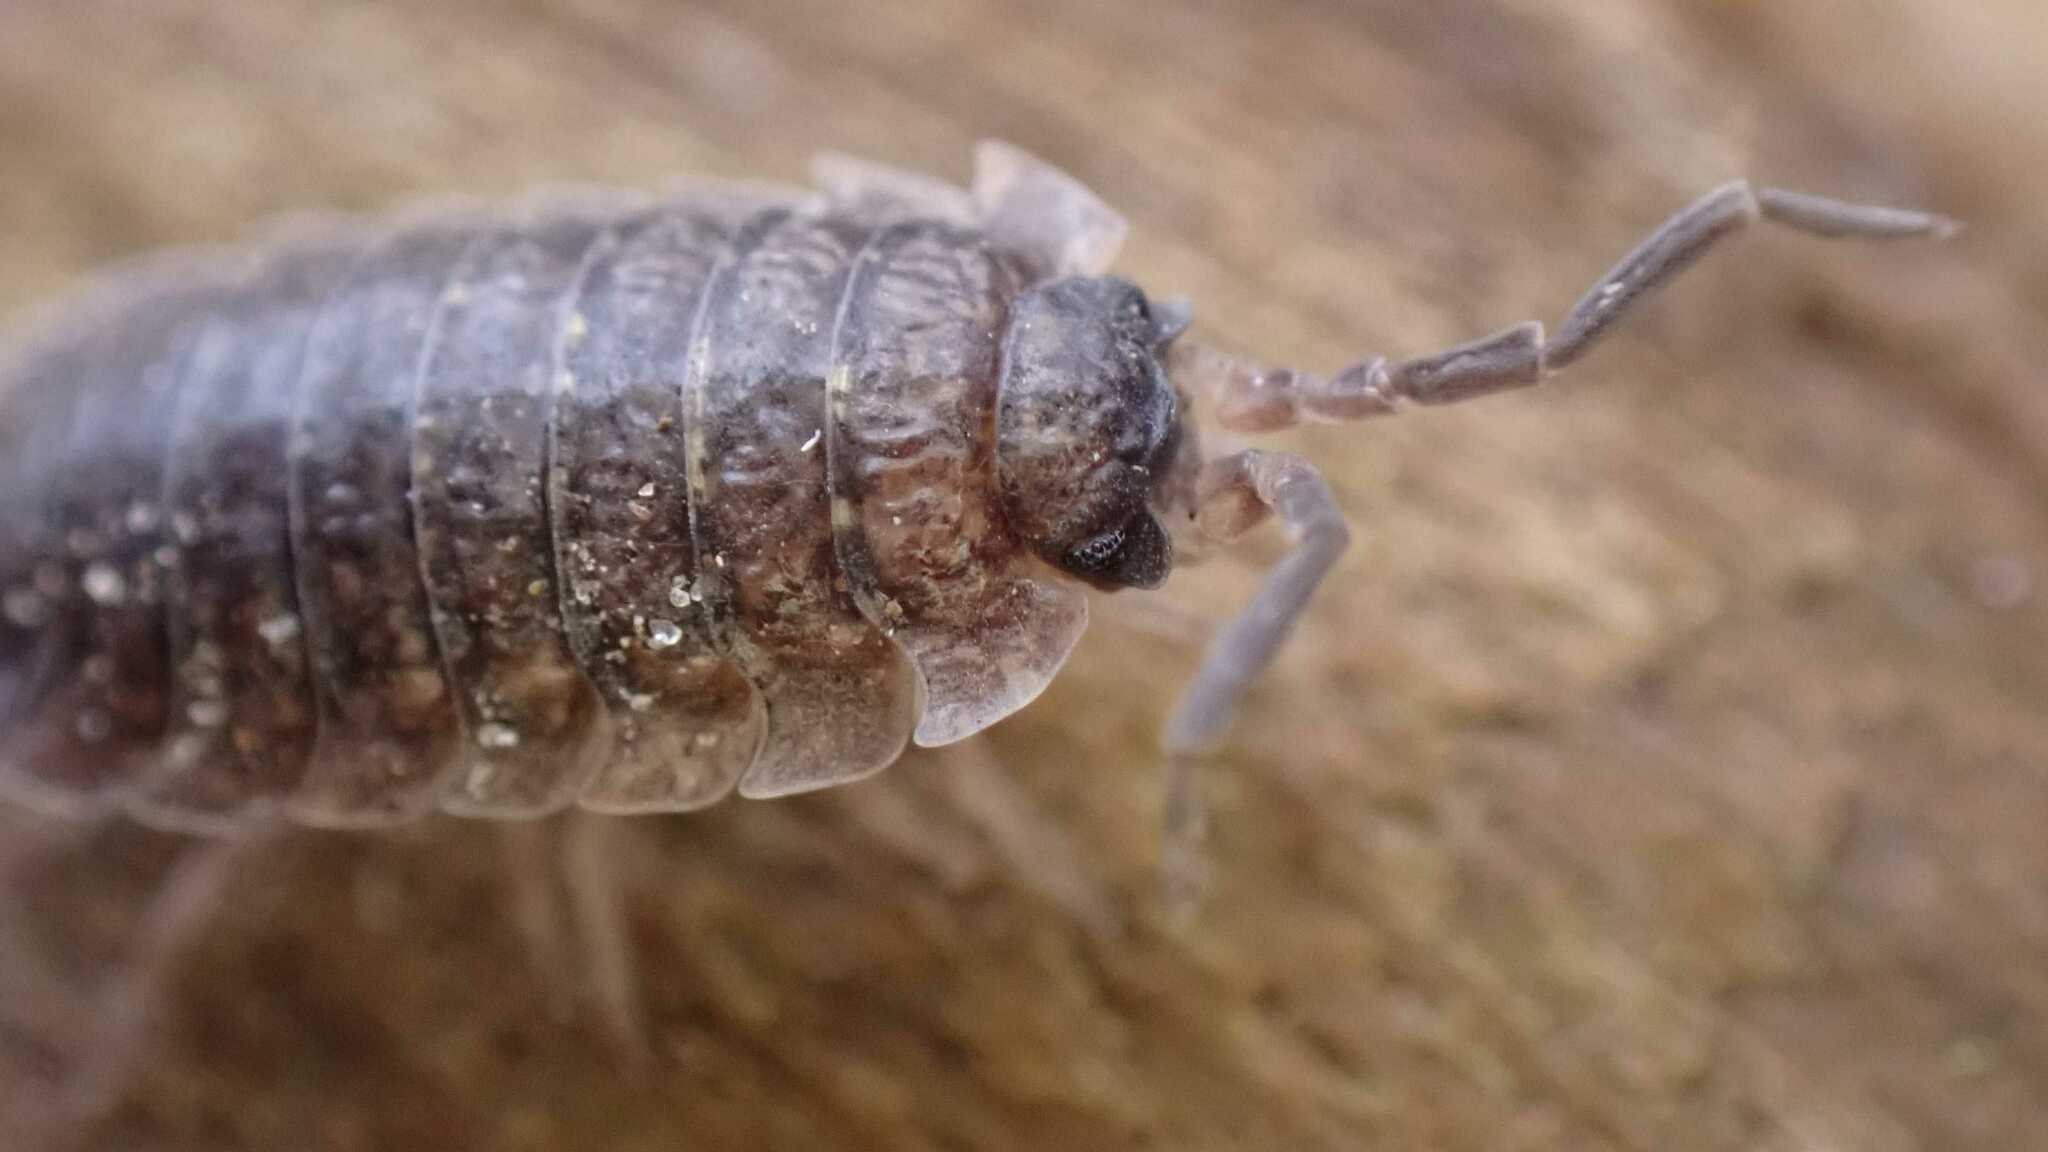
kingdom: Animalia
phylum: Arthropoda
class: Malacostraca
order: Isopoda
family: Porcellionidae
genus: Porcellio
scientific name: Porcellio scaber
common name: Common rough woodlouse
